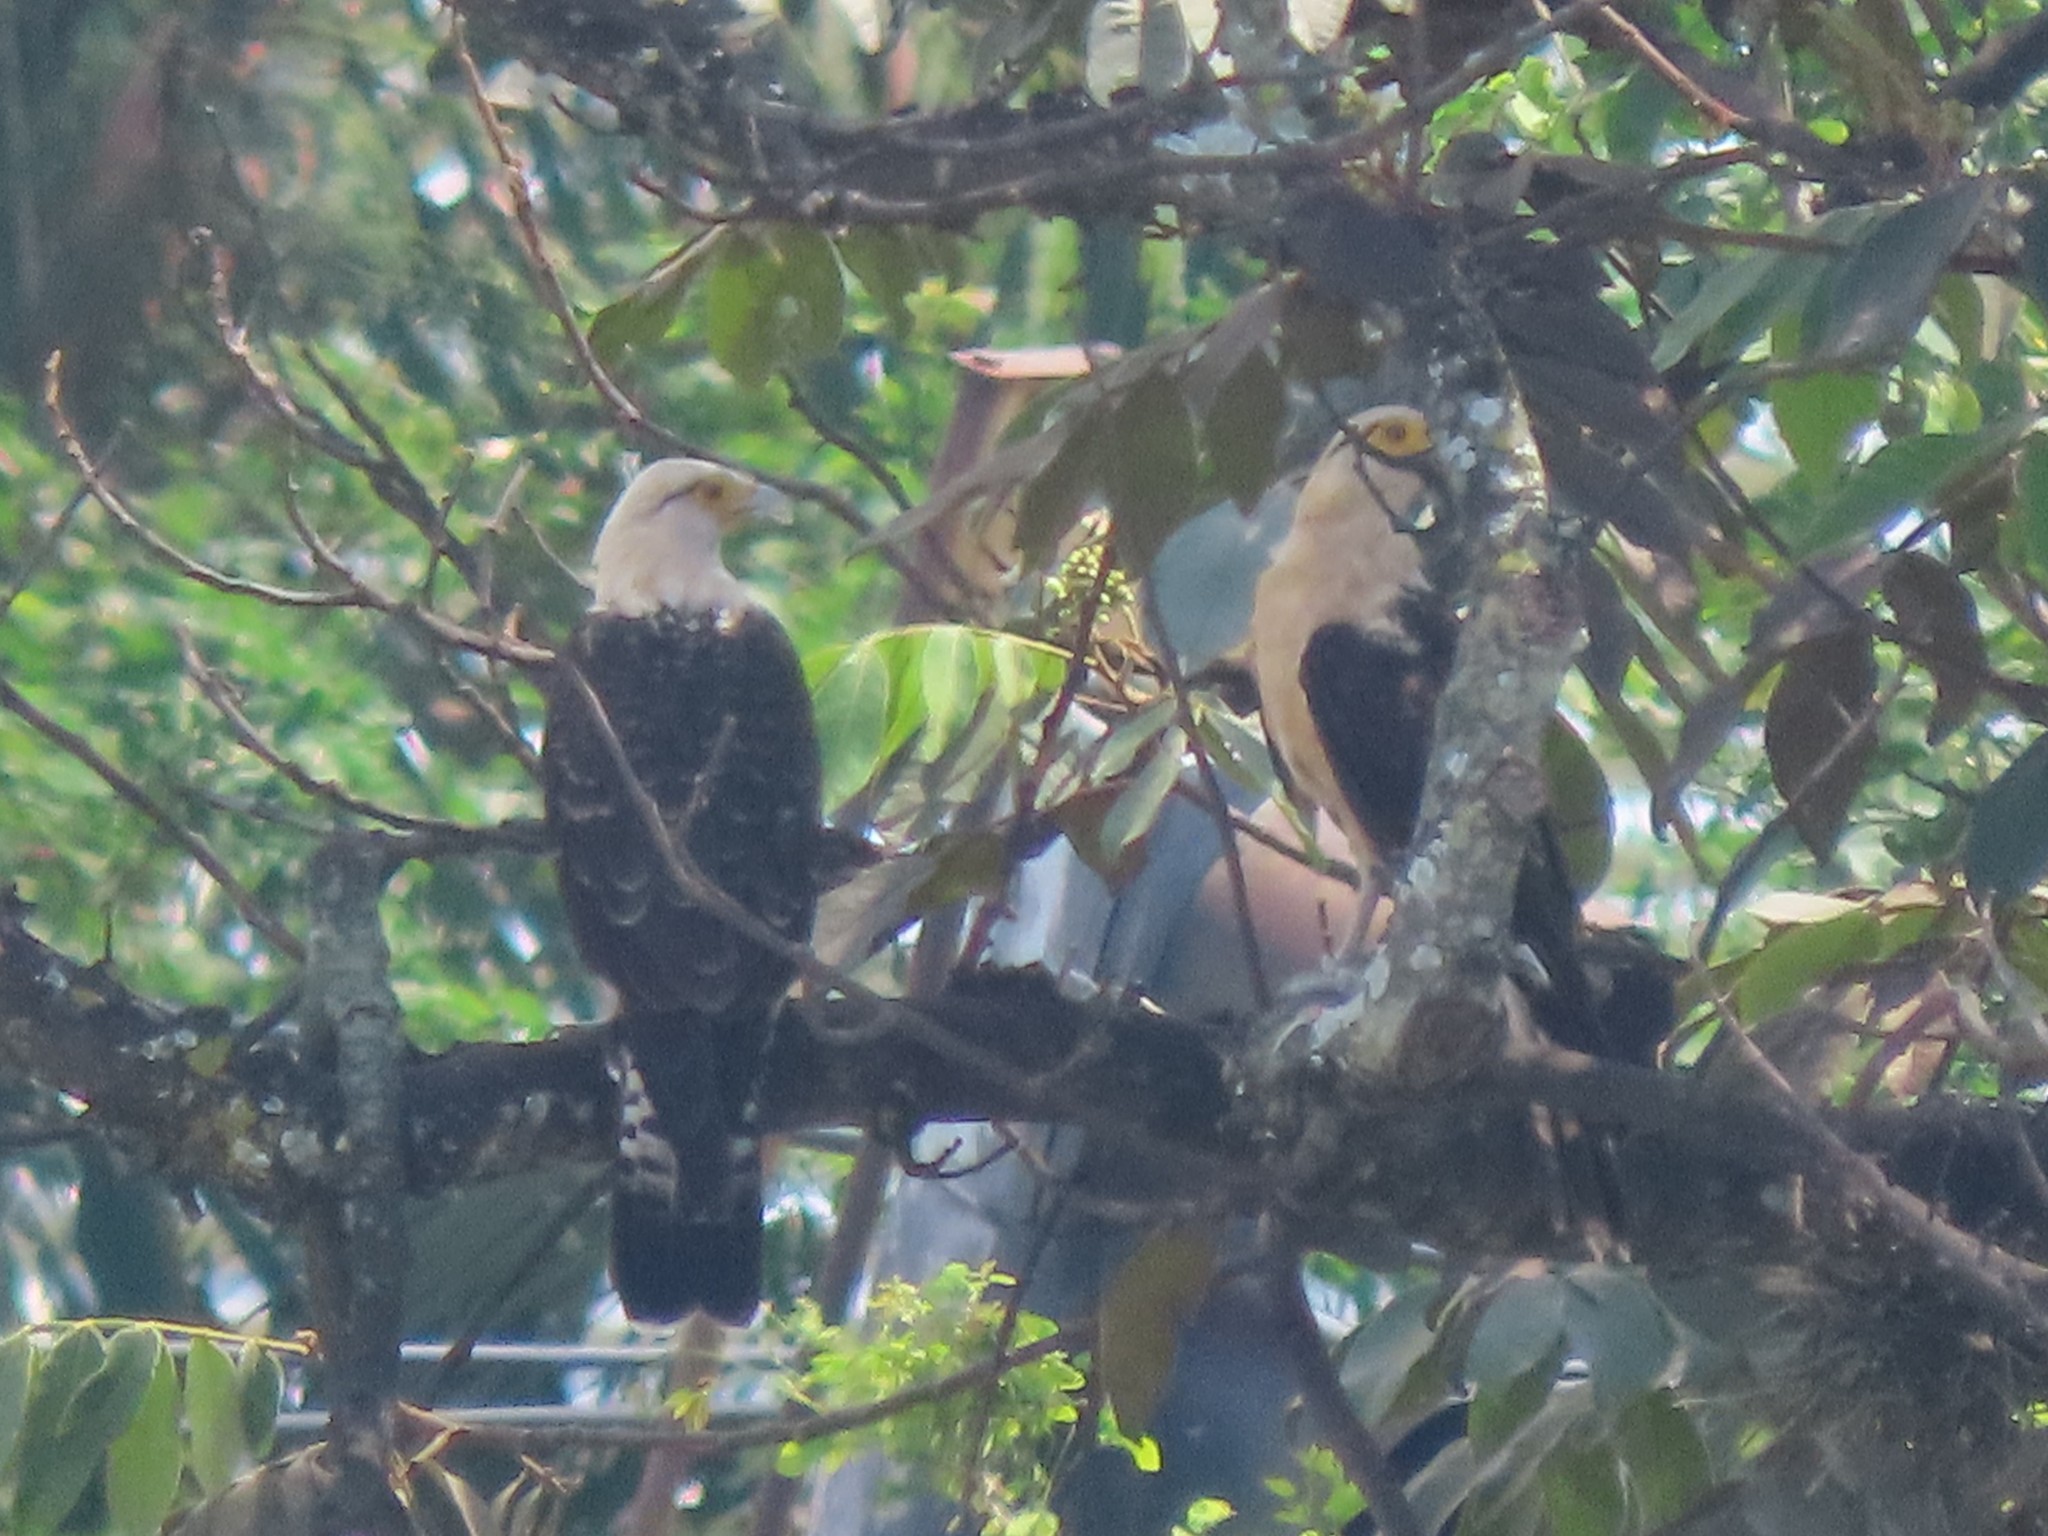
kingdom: Animalia
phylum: Chordata
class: Aves
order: Falconiformes
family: Falconidae
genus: Daptrius
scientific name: Daptrius
